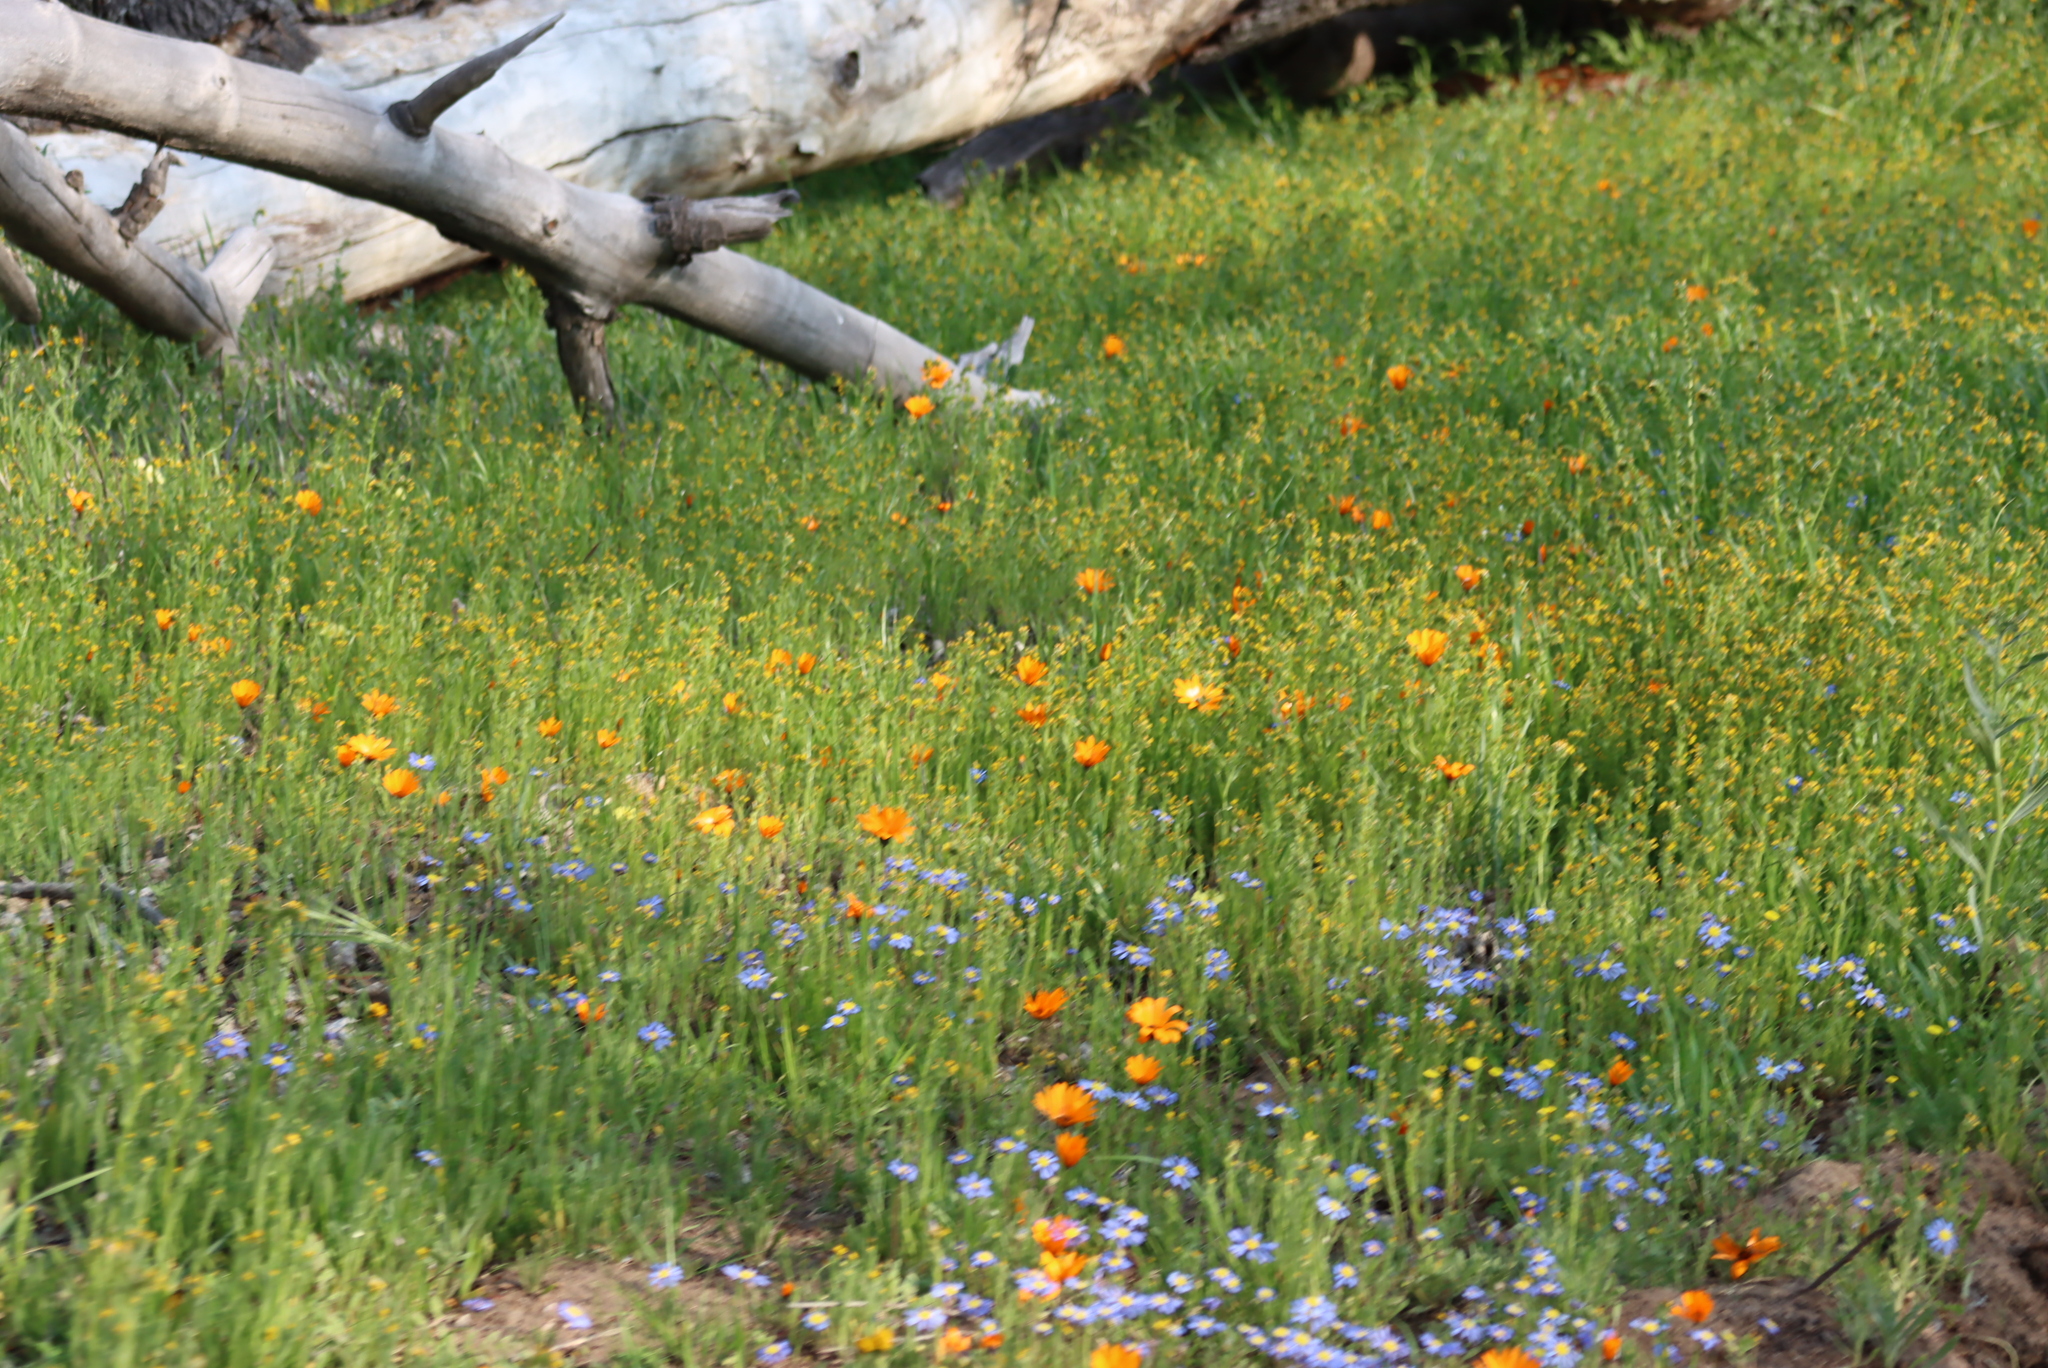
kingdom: Plantae
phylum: Tracheophyta
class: Magnoliopsida
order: Boraginales
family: Boraginaceae
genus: Amsinckia
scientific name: Amsinckia menziesii
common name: Menzies' fiddleneck
